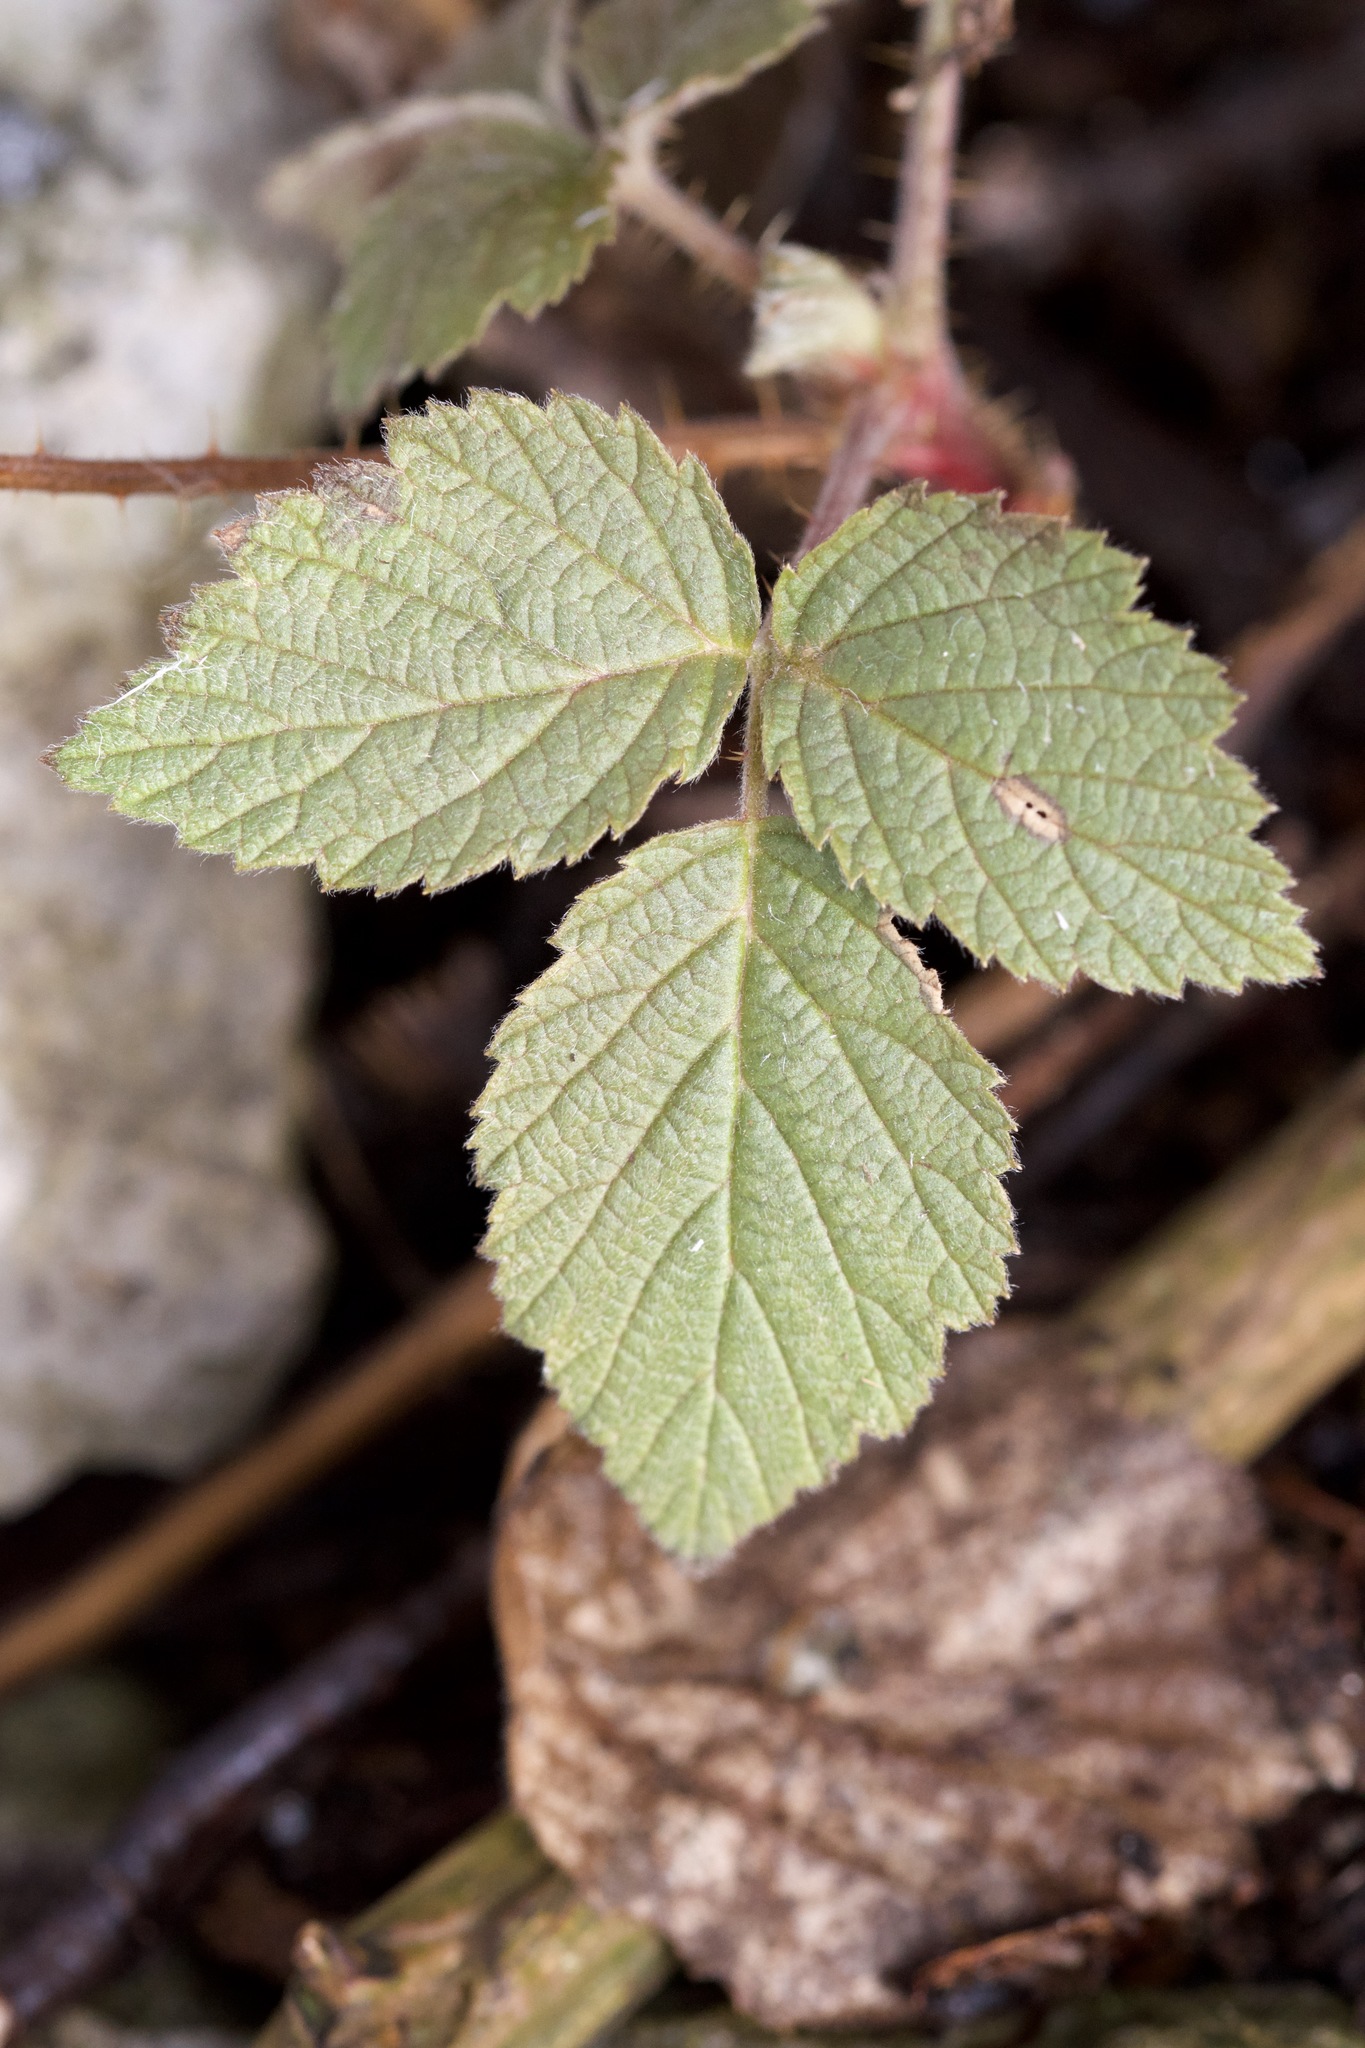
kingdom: Plantae
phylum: Tracheophyta
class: Magnoliopsida
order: Rosales
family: Rosaceae
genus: Rubus
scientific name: Rubus idaeus
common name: Raspberry
